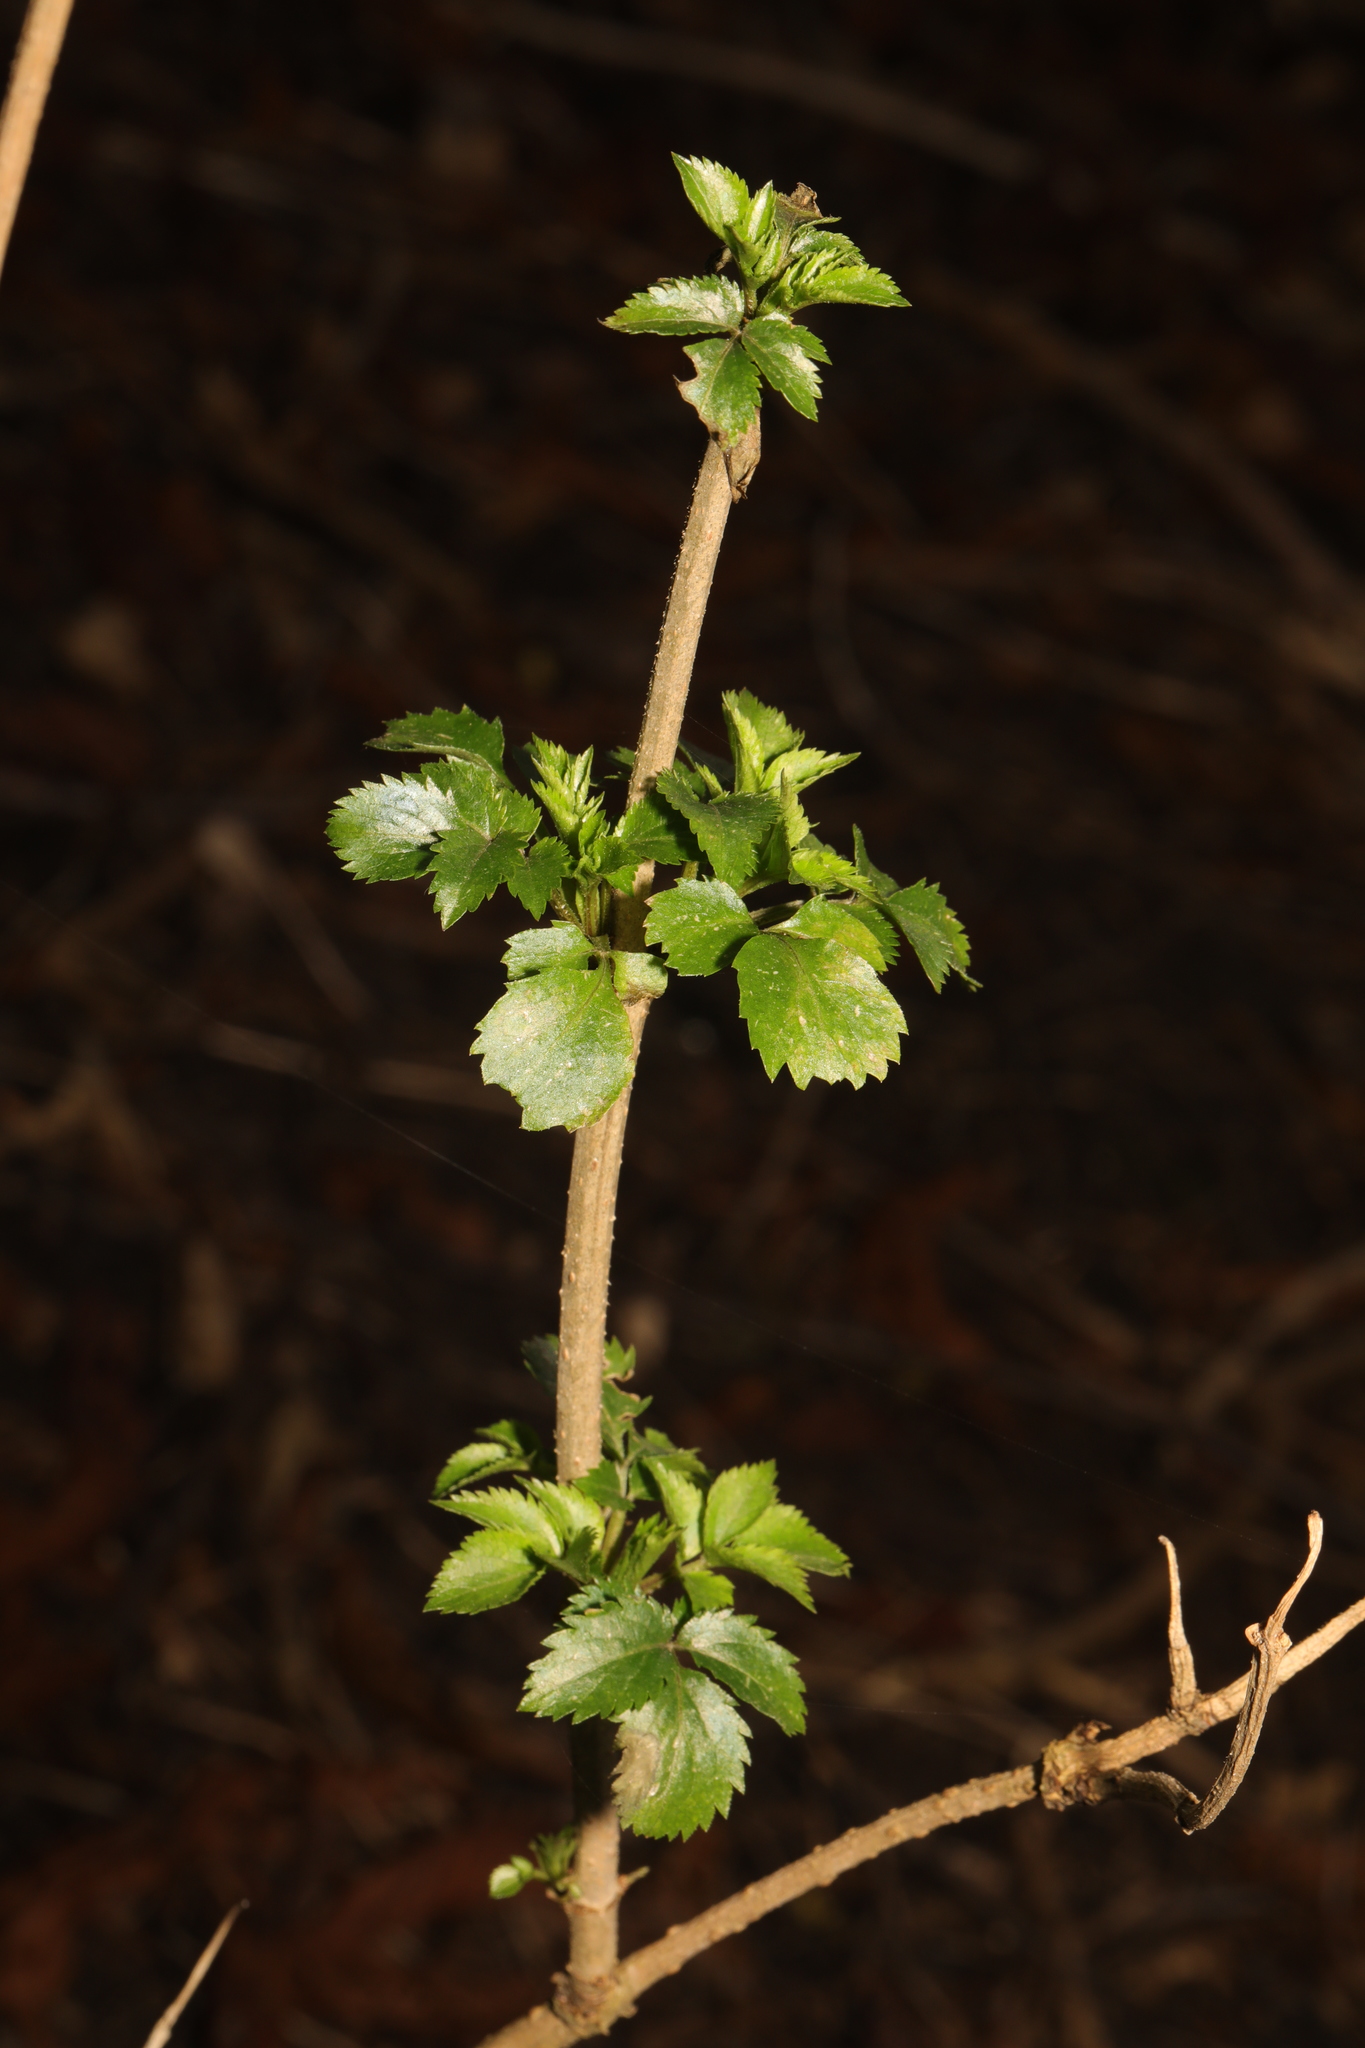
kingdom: Plantae
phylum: Tracheophyta
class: Magnoliopsida
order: Dipsacales
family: Viburnaceae
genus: Sambucus
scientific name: Sambucus nigra
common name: Elder
